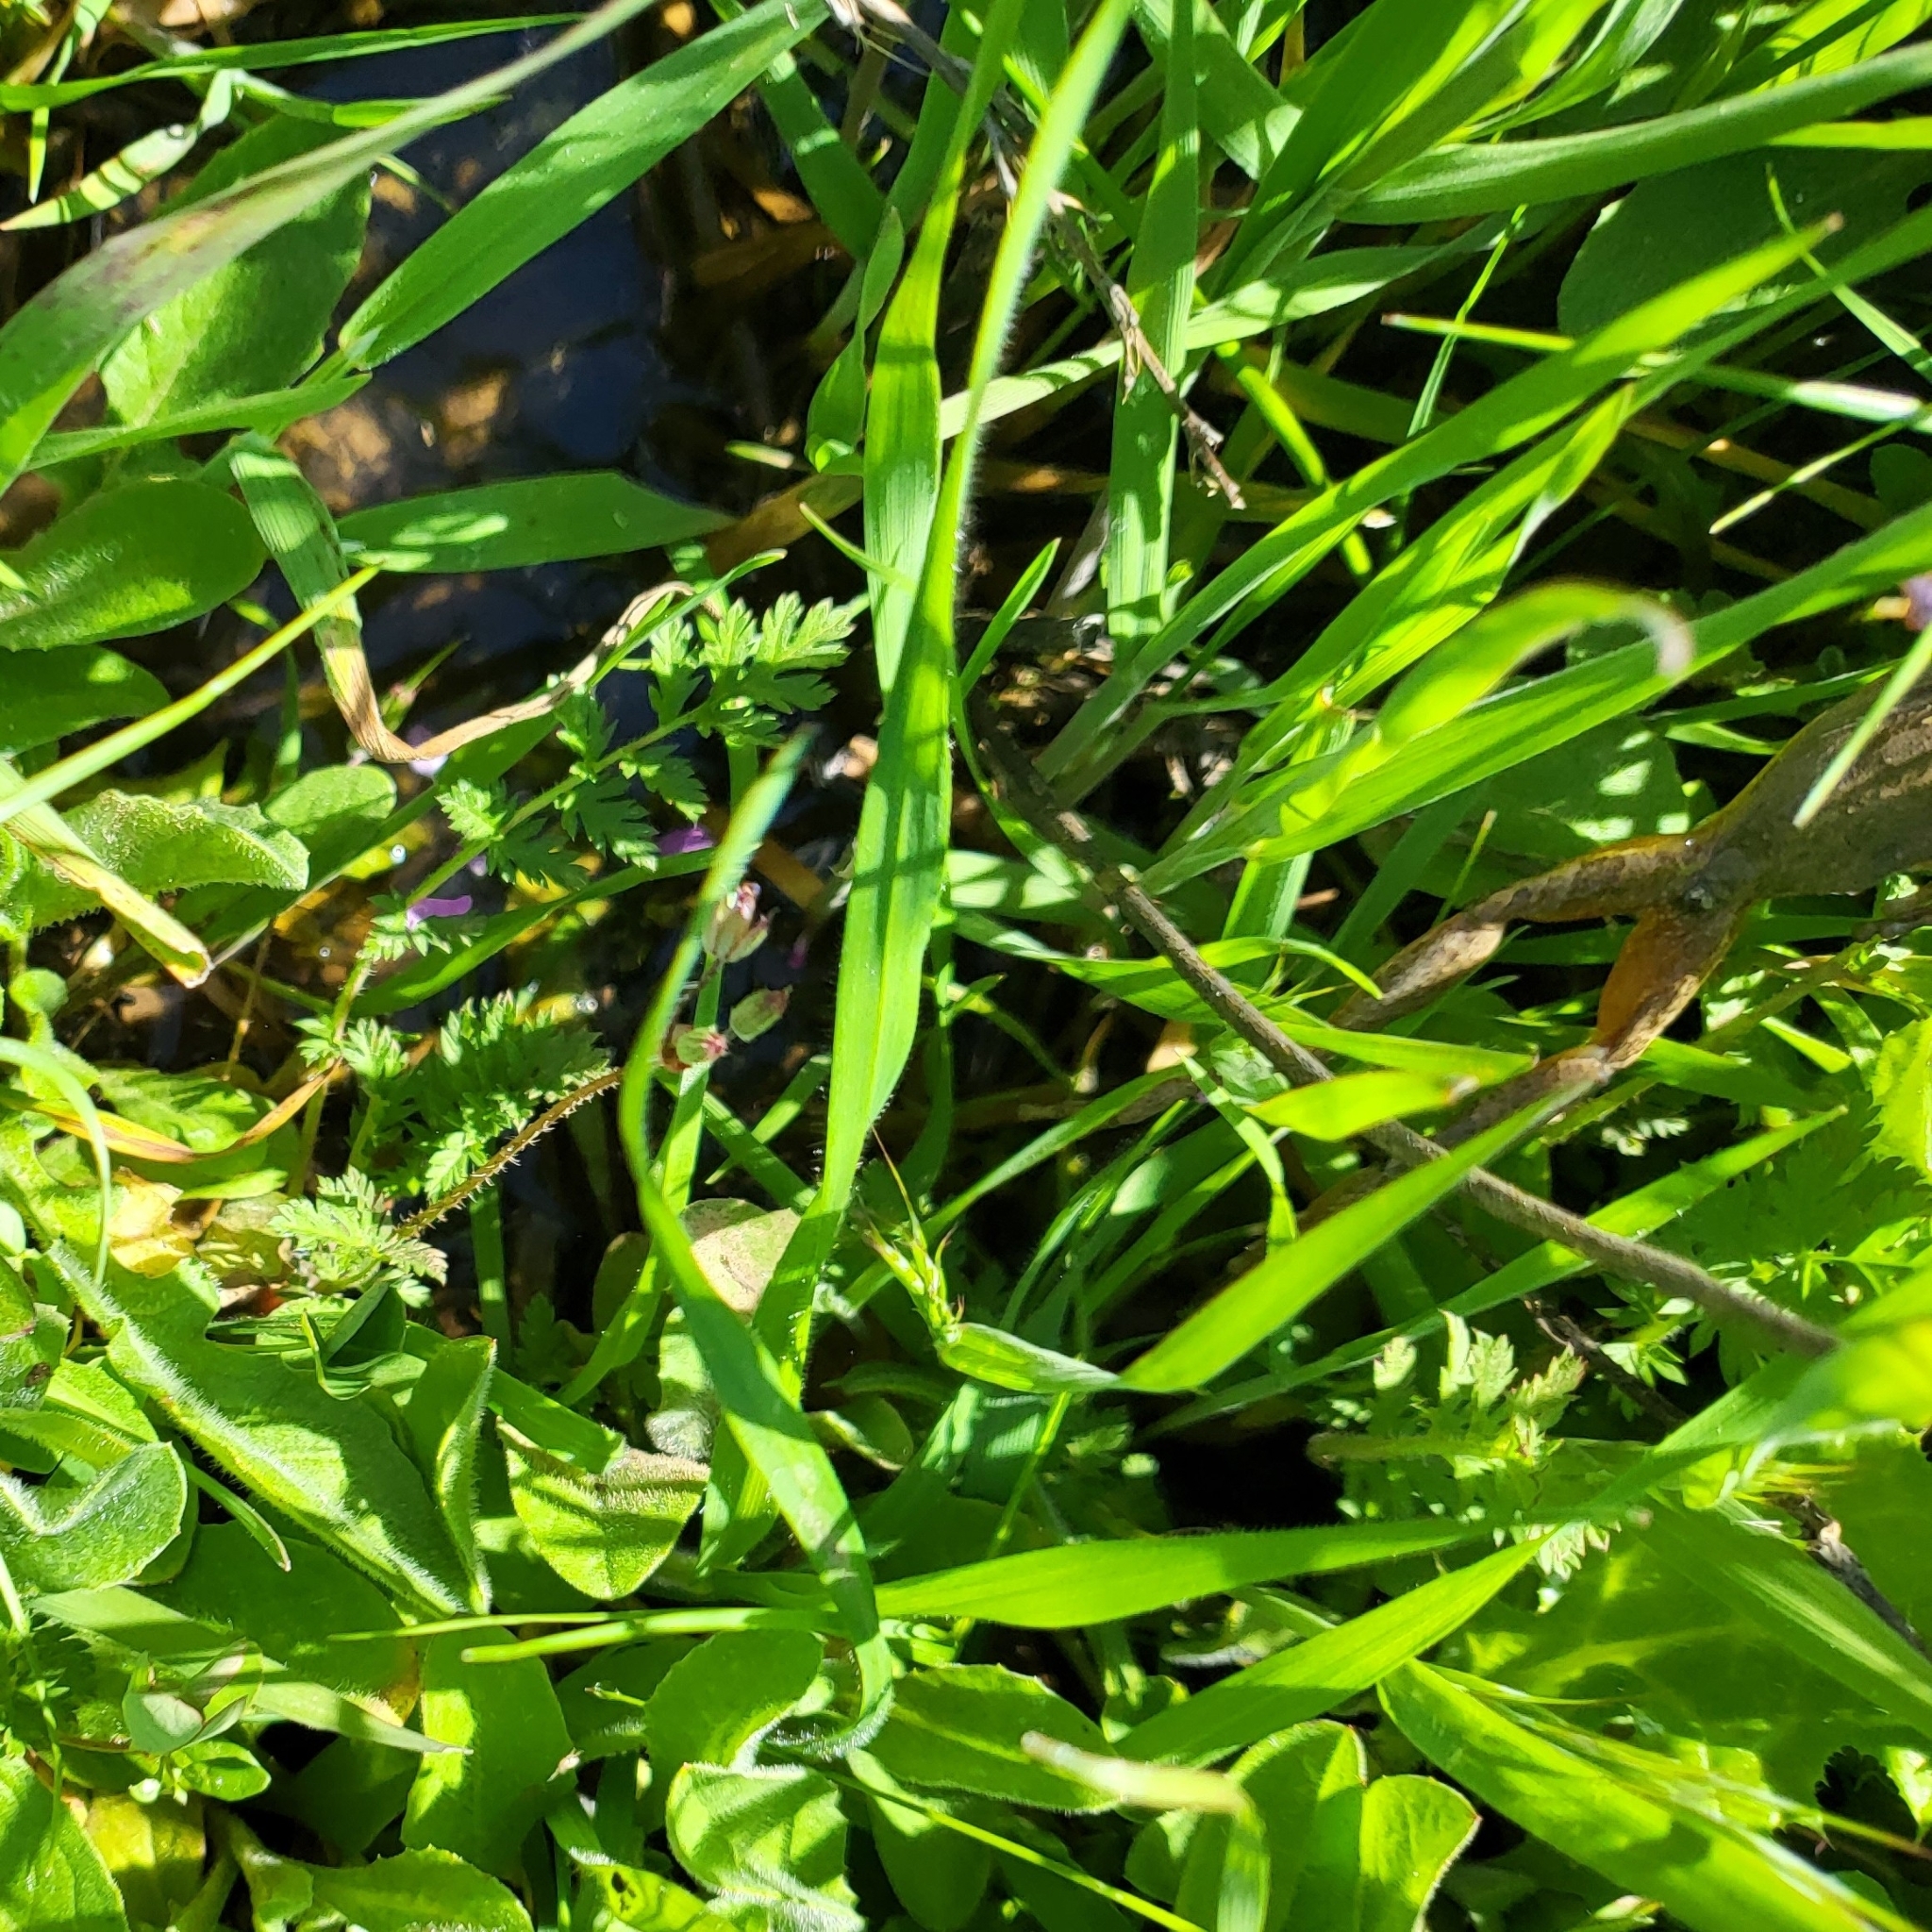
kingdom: Animalia
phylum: Chordata
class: Amphibia
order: Anura
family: Hylidae
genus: Pseudacris
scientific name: Pseudacris regilla
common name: Pacific chorus frog
